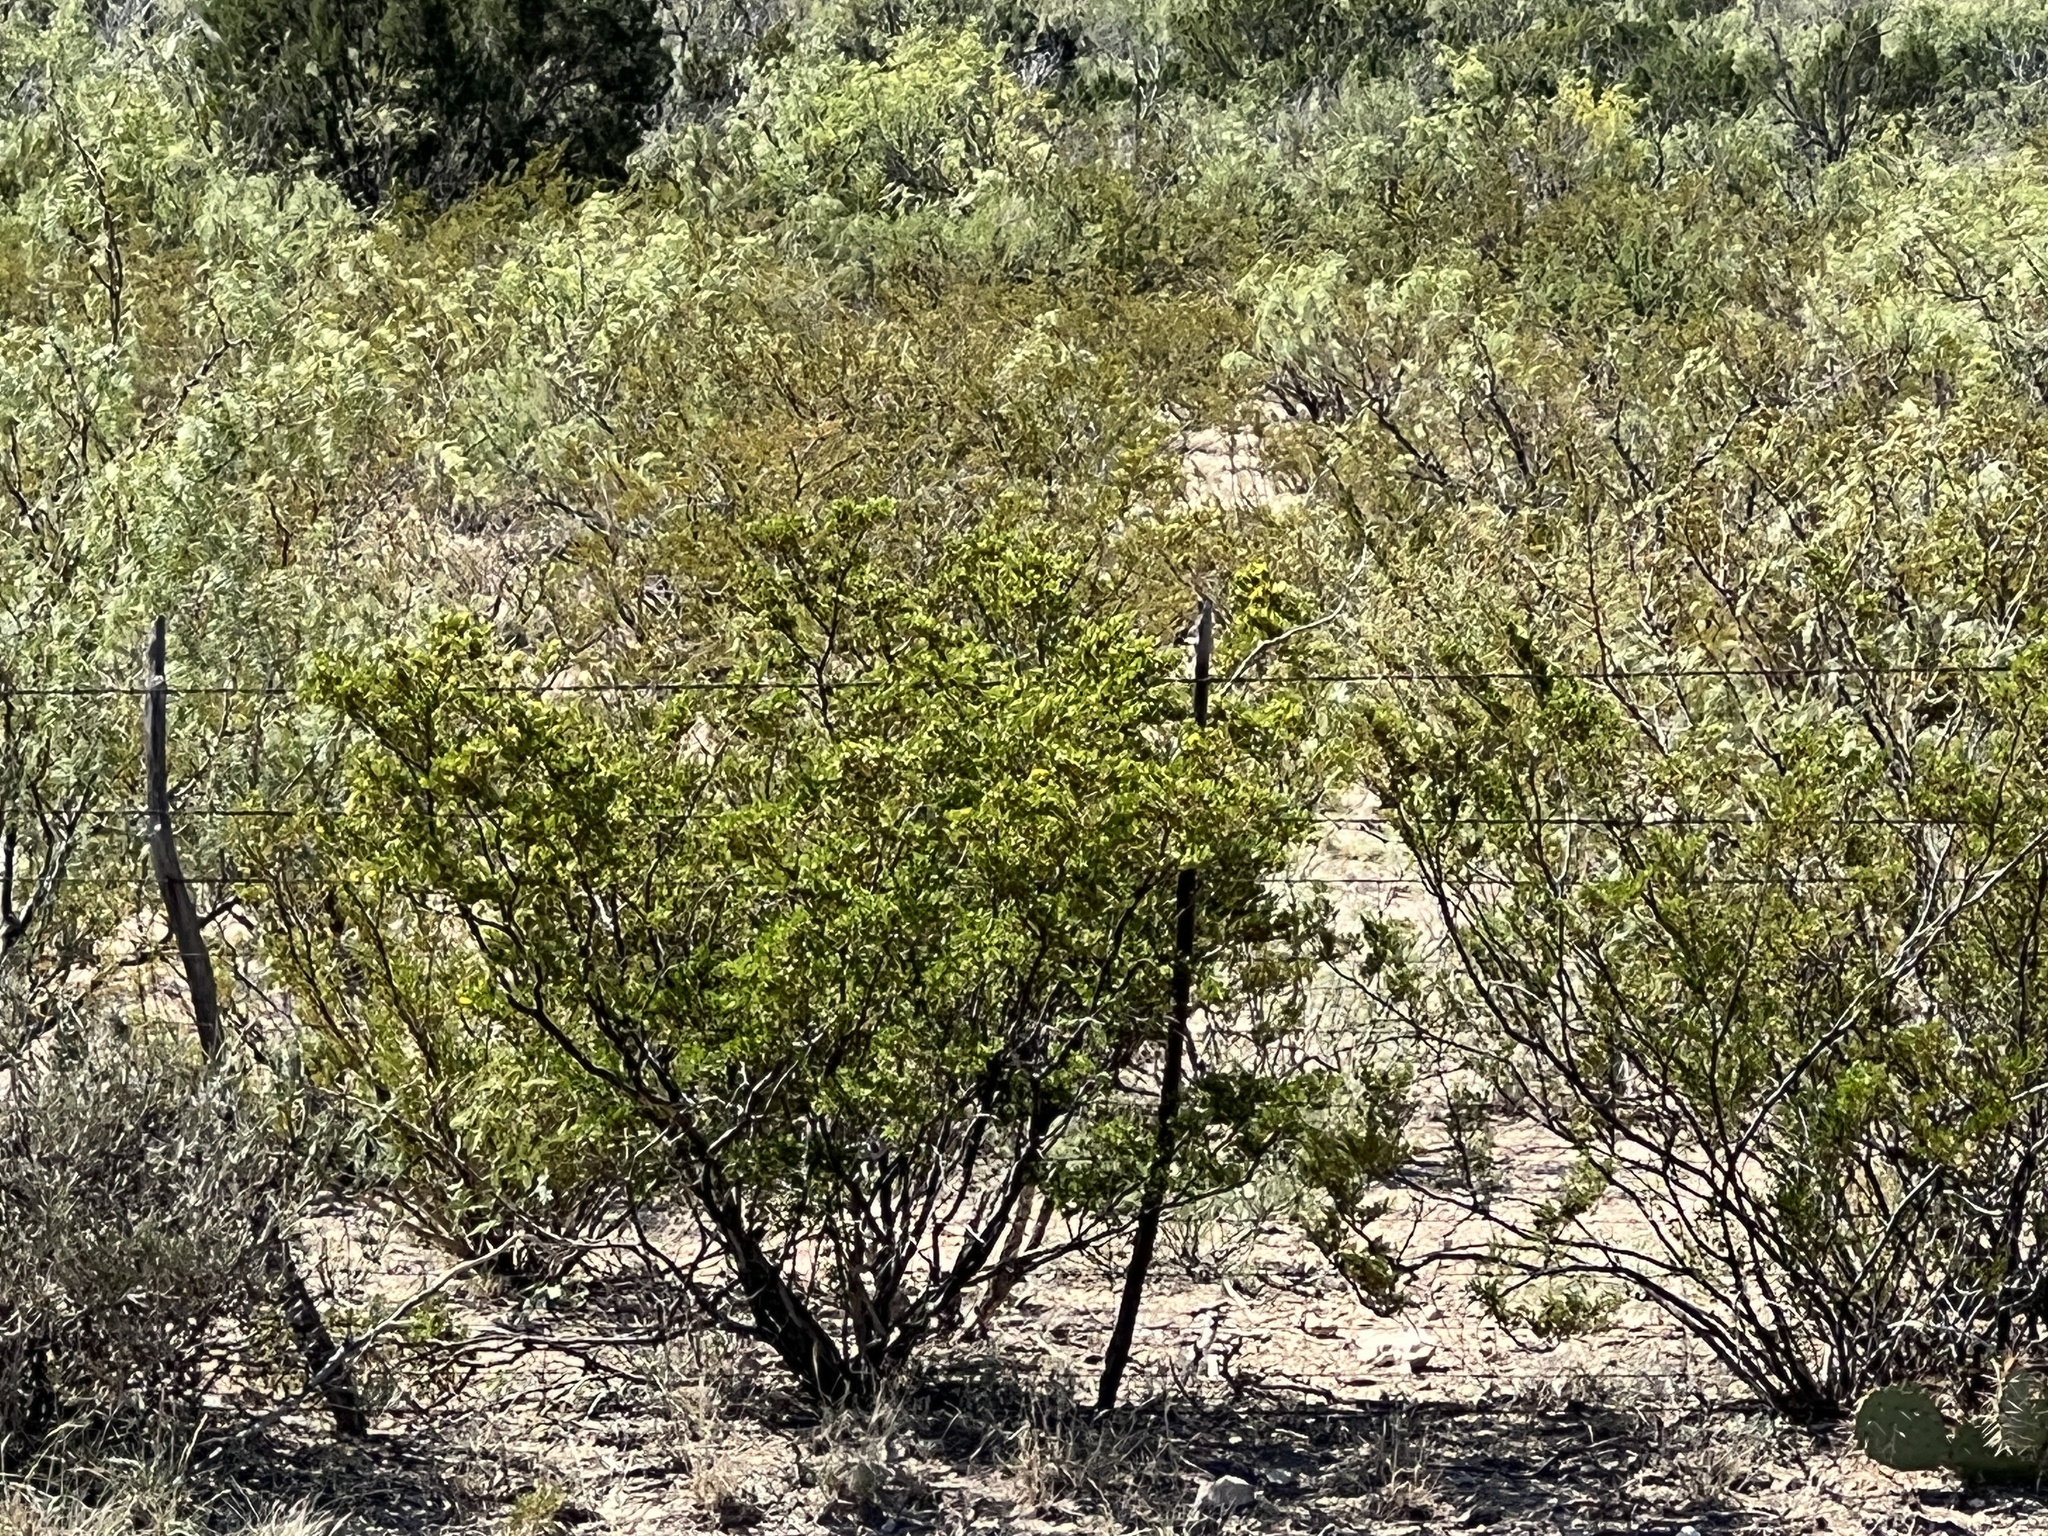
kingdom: Plantae
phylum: Tracheophyta
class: Magnoliopsida
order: Zygophyllales
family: Zygophyllaceae
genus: Larrea
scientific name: Larrea tridentata
